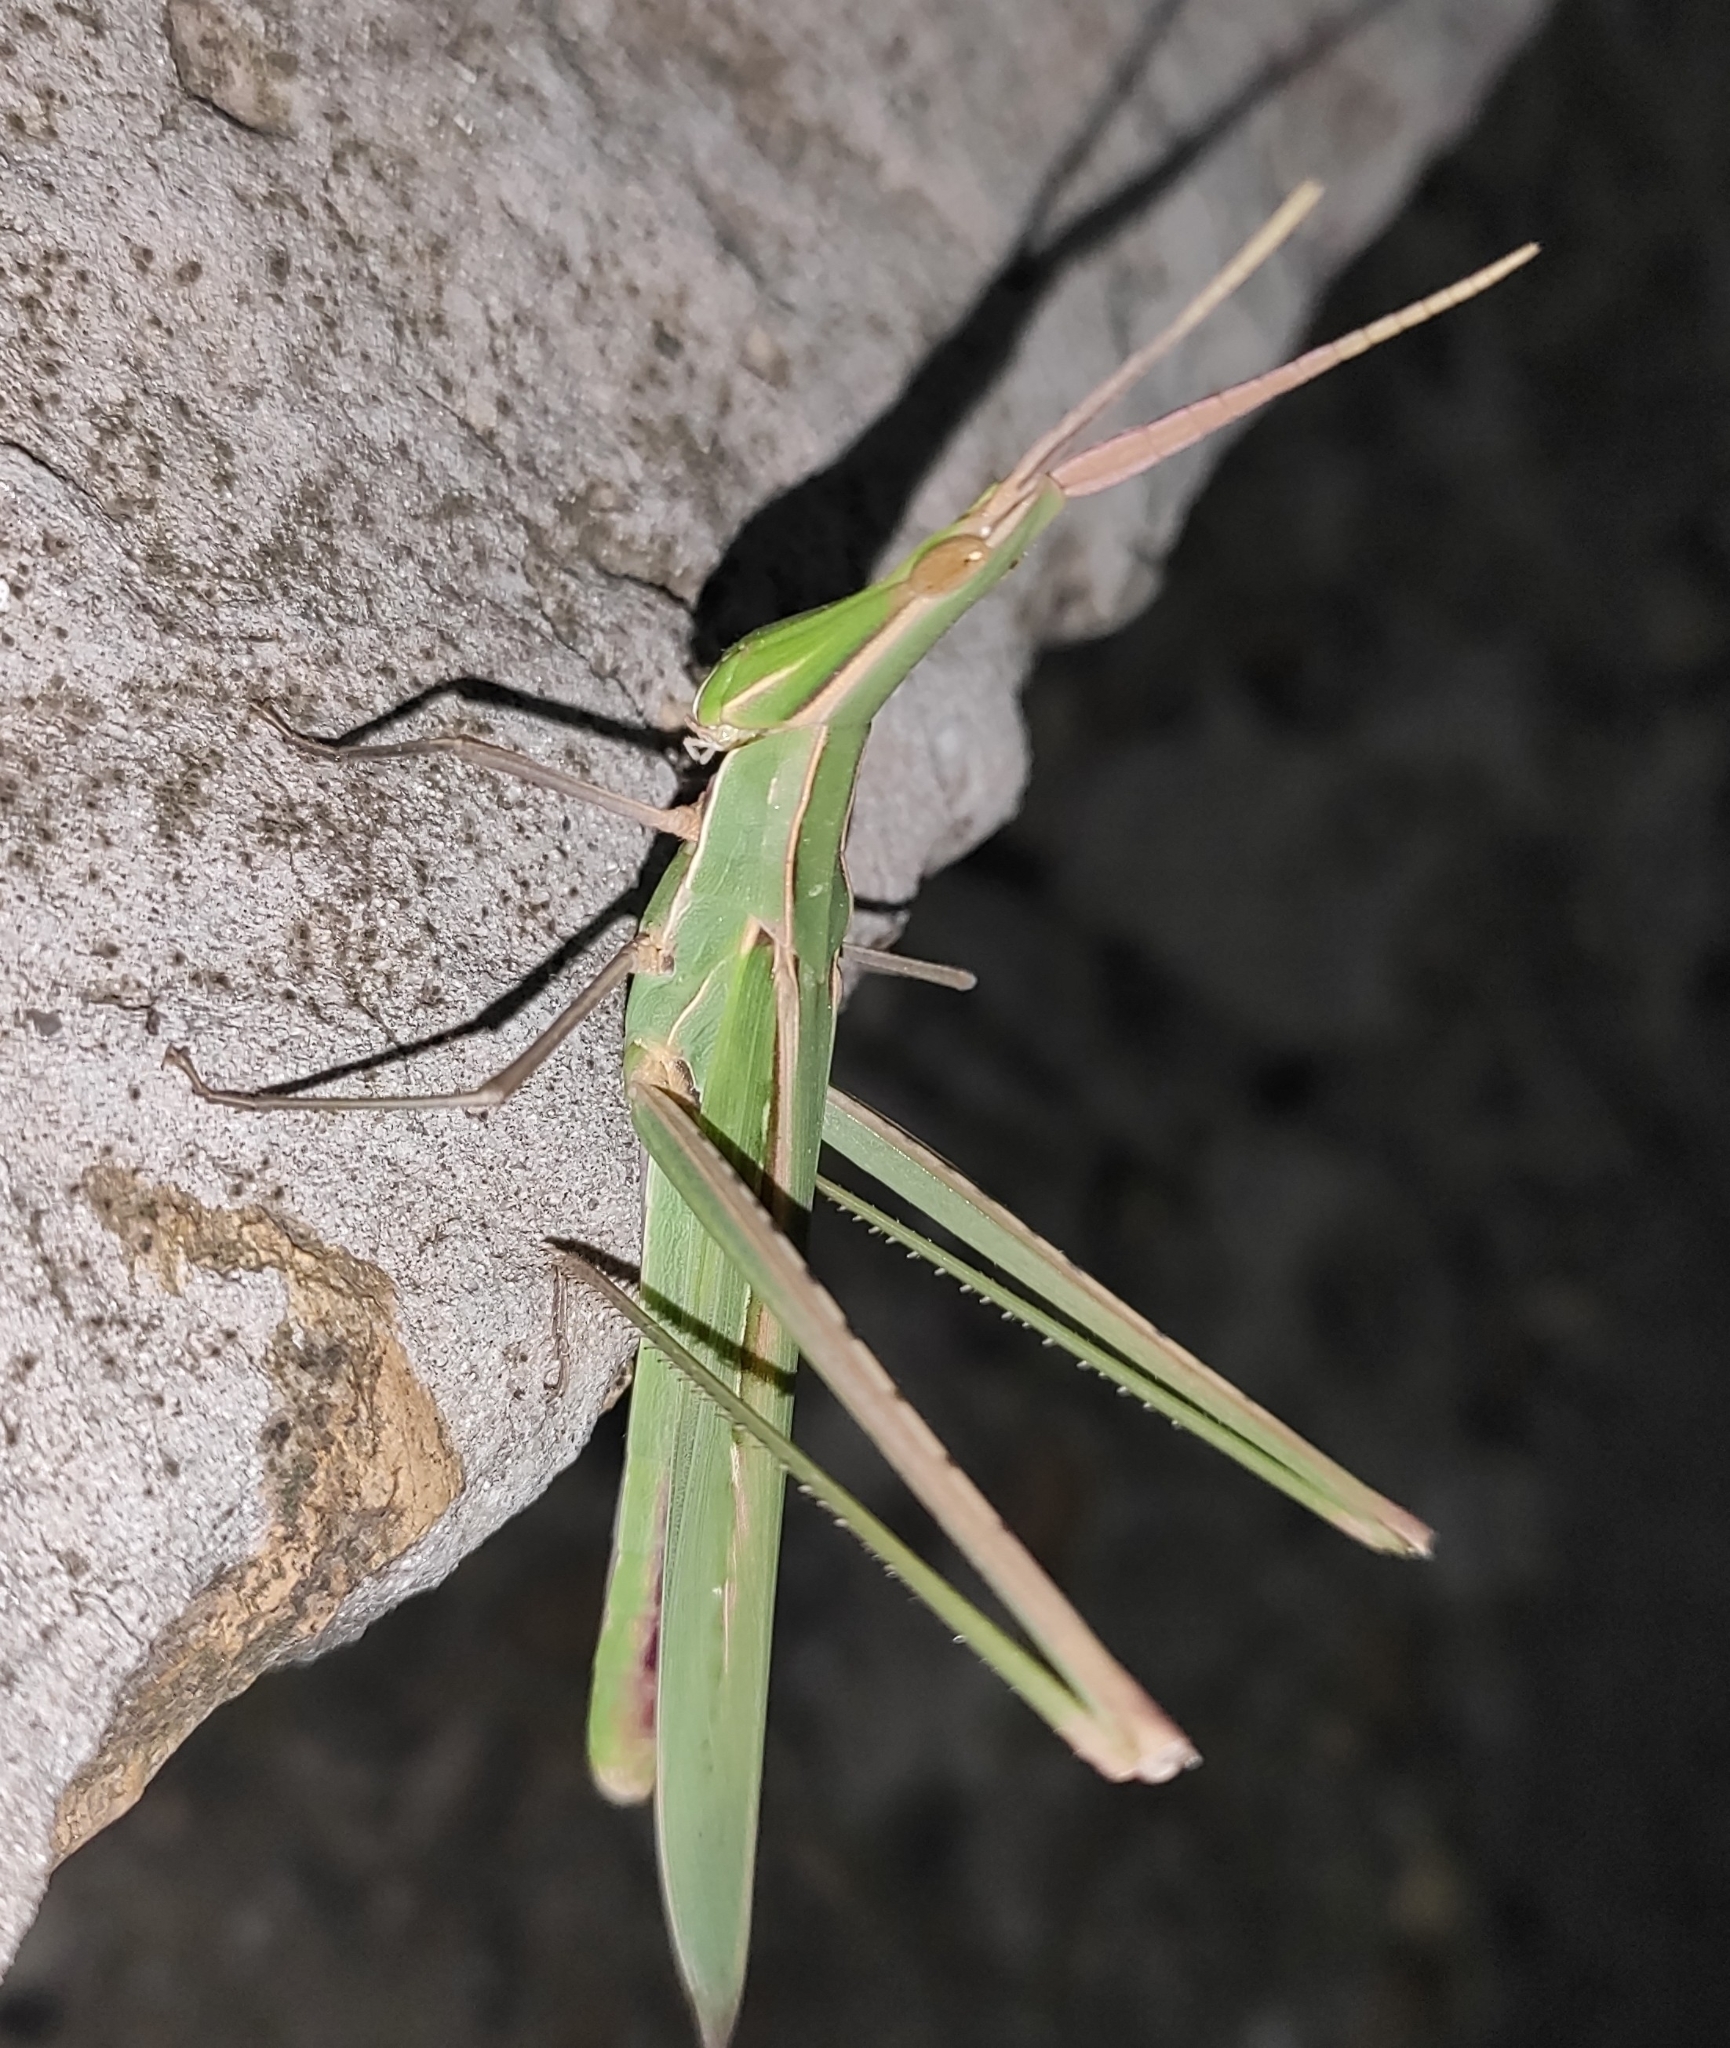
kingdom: Animalia
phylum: Arthropoda
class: Insecta
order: Orthoptera
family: Acrididae
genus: Acrida
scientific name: Acrida ungarica
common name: Common cone-headed grasshopper
